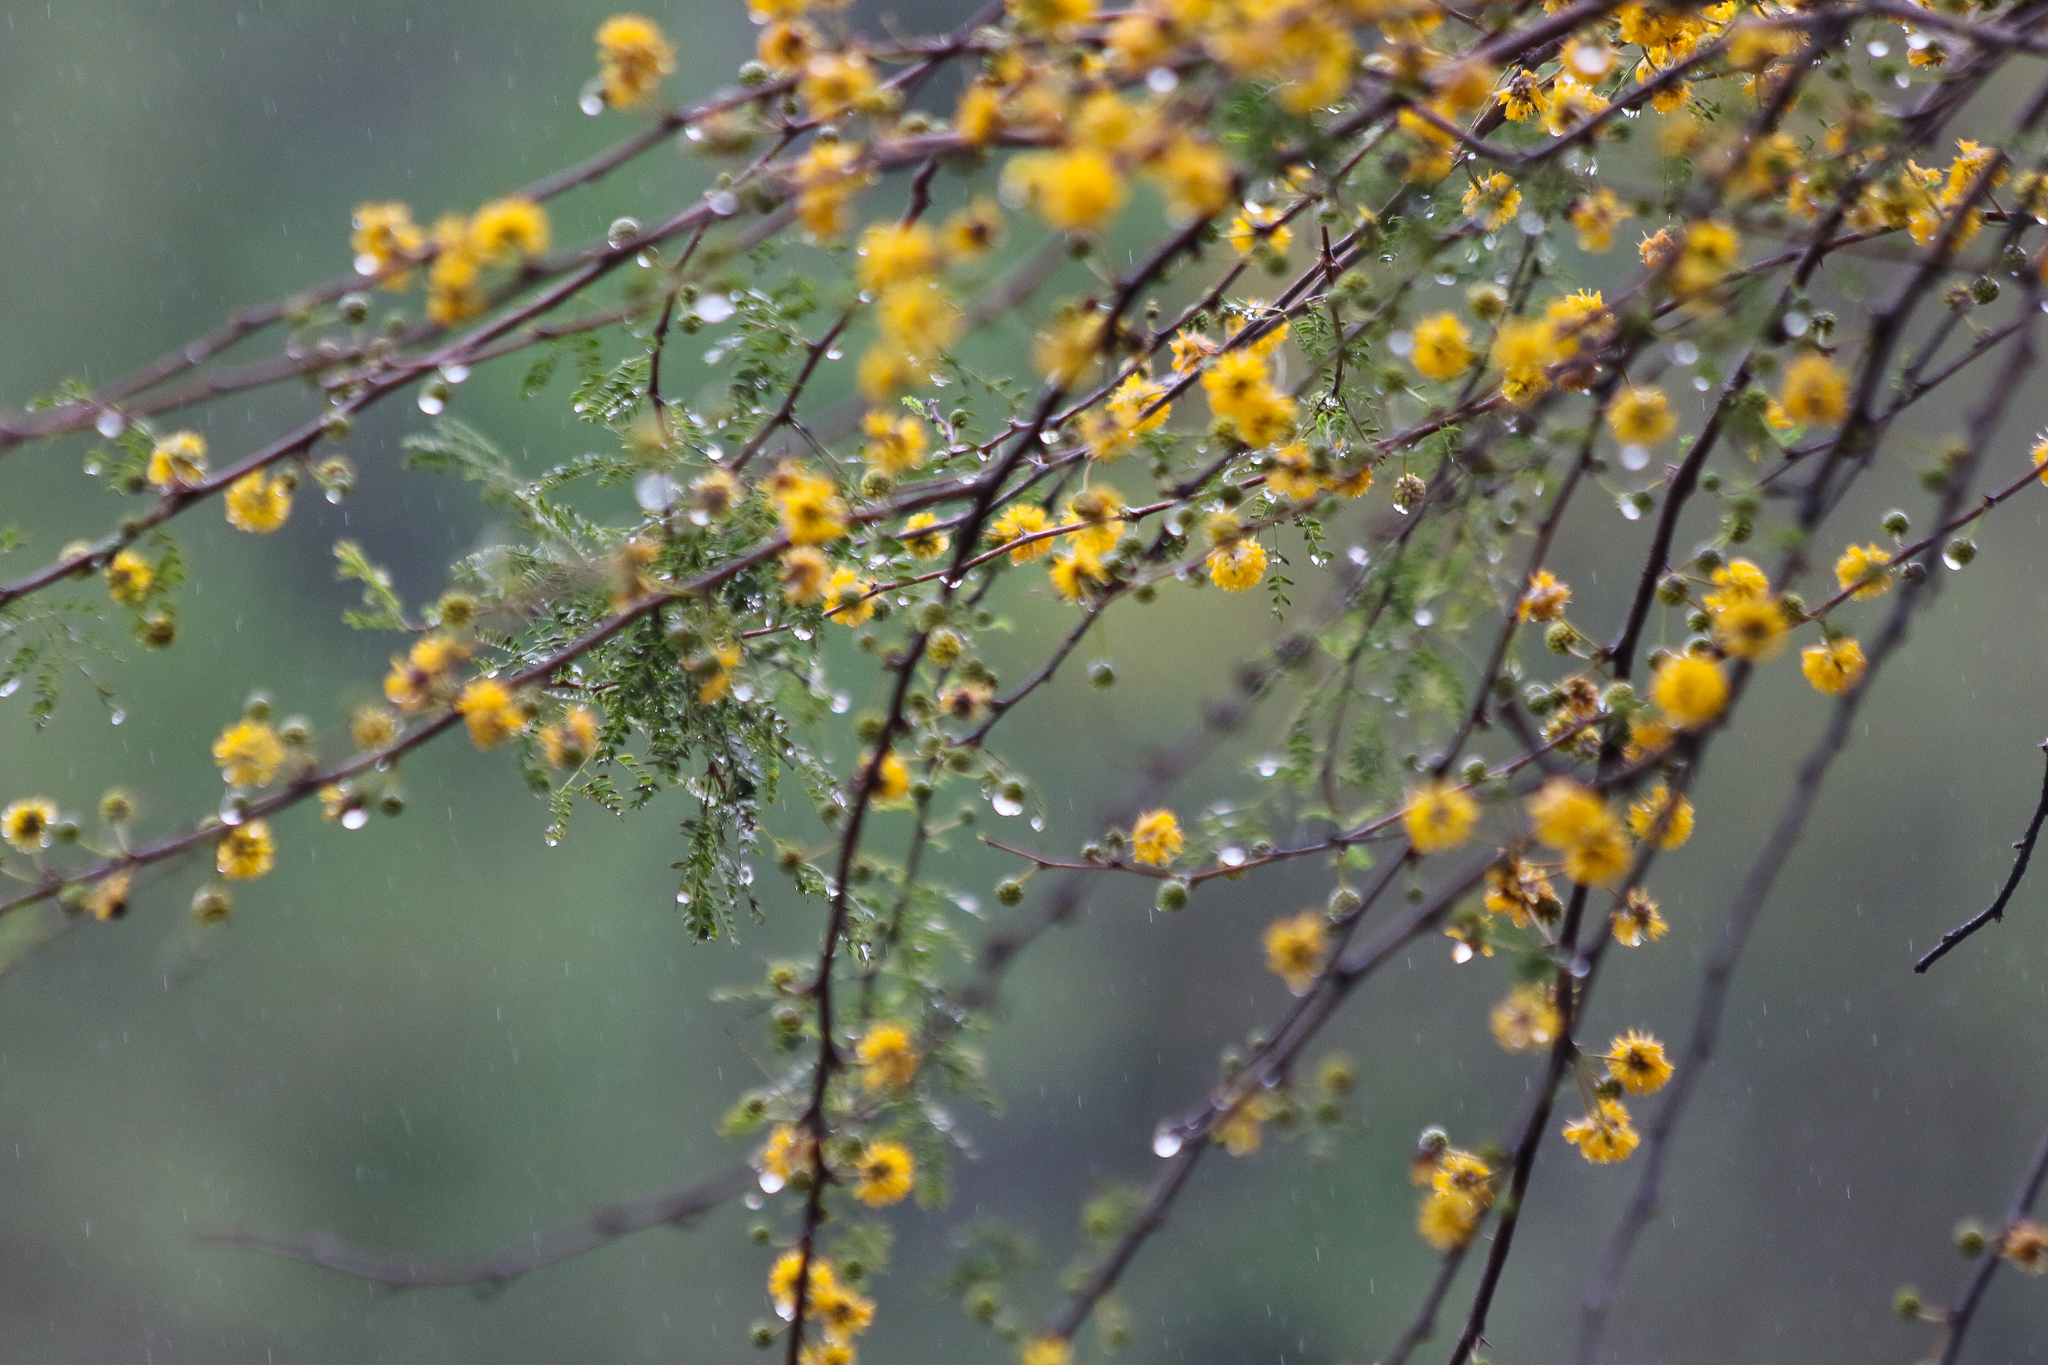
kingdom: Plantae
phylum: Tracheophyta
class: Magnoliopsida
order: Fabales
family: Fabaceae
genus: Vachellia
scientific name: Vachellia farnesiana
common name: Sweet acacia
